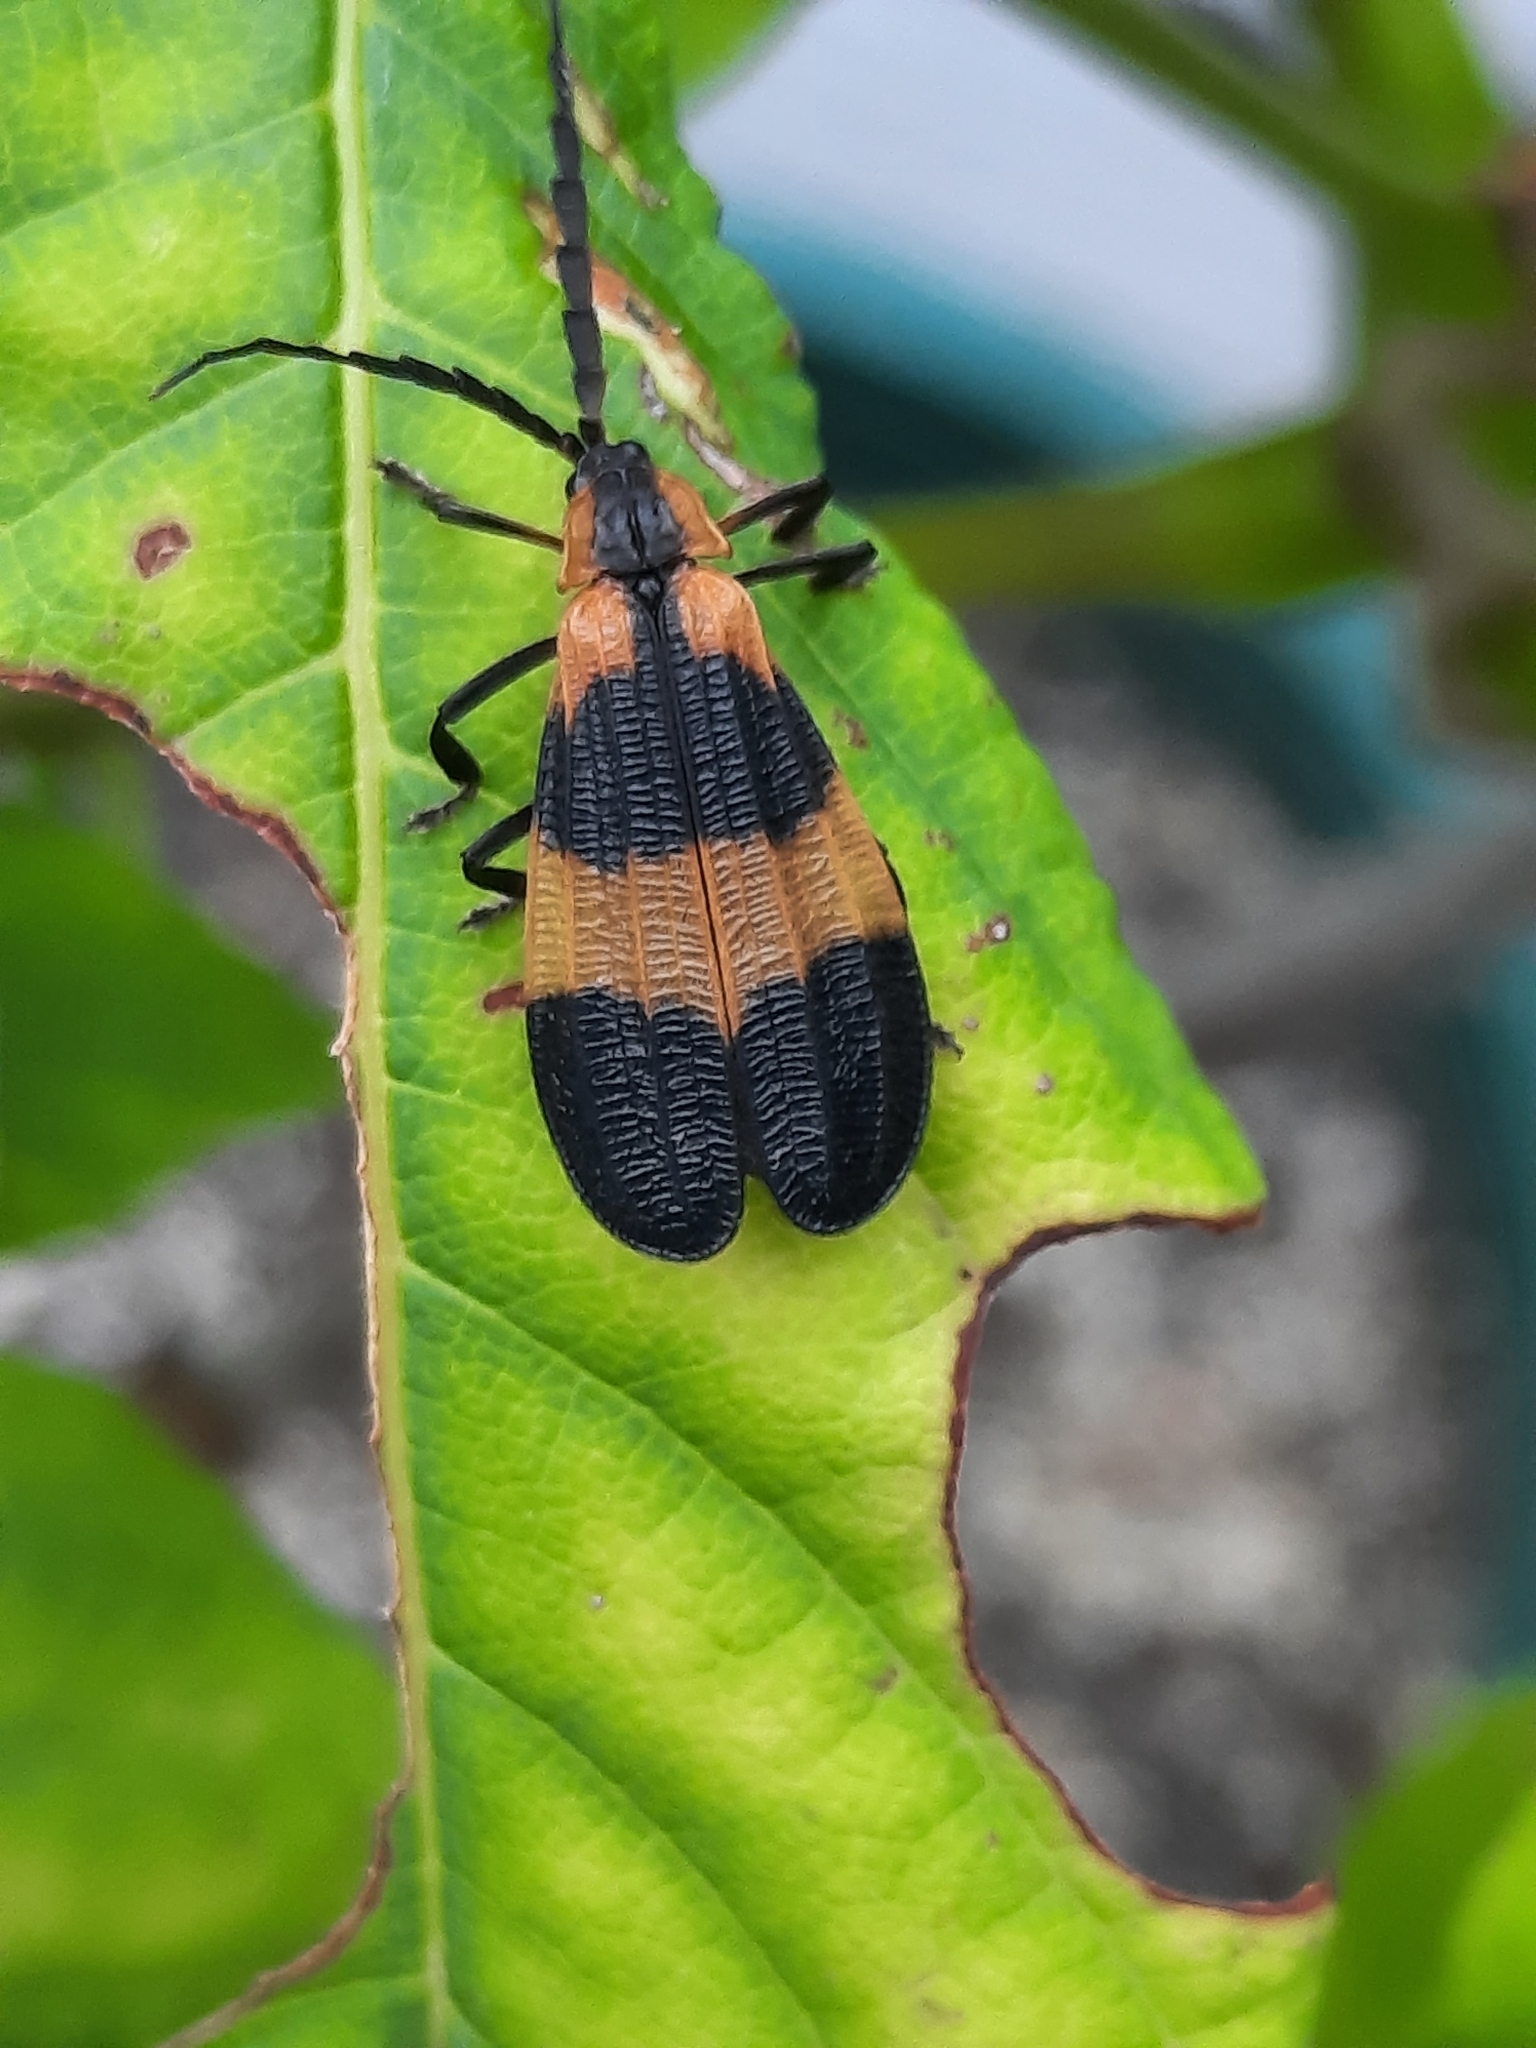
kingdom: Animalia
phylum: Arthropoda
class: Insecta
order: Coleoptera
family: Lycidae
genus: Calopteron
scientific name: Calopteron reticulatum
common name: Banded net-winged beetle
